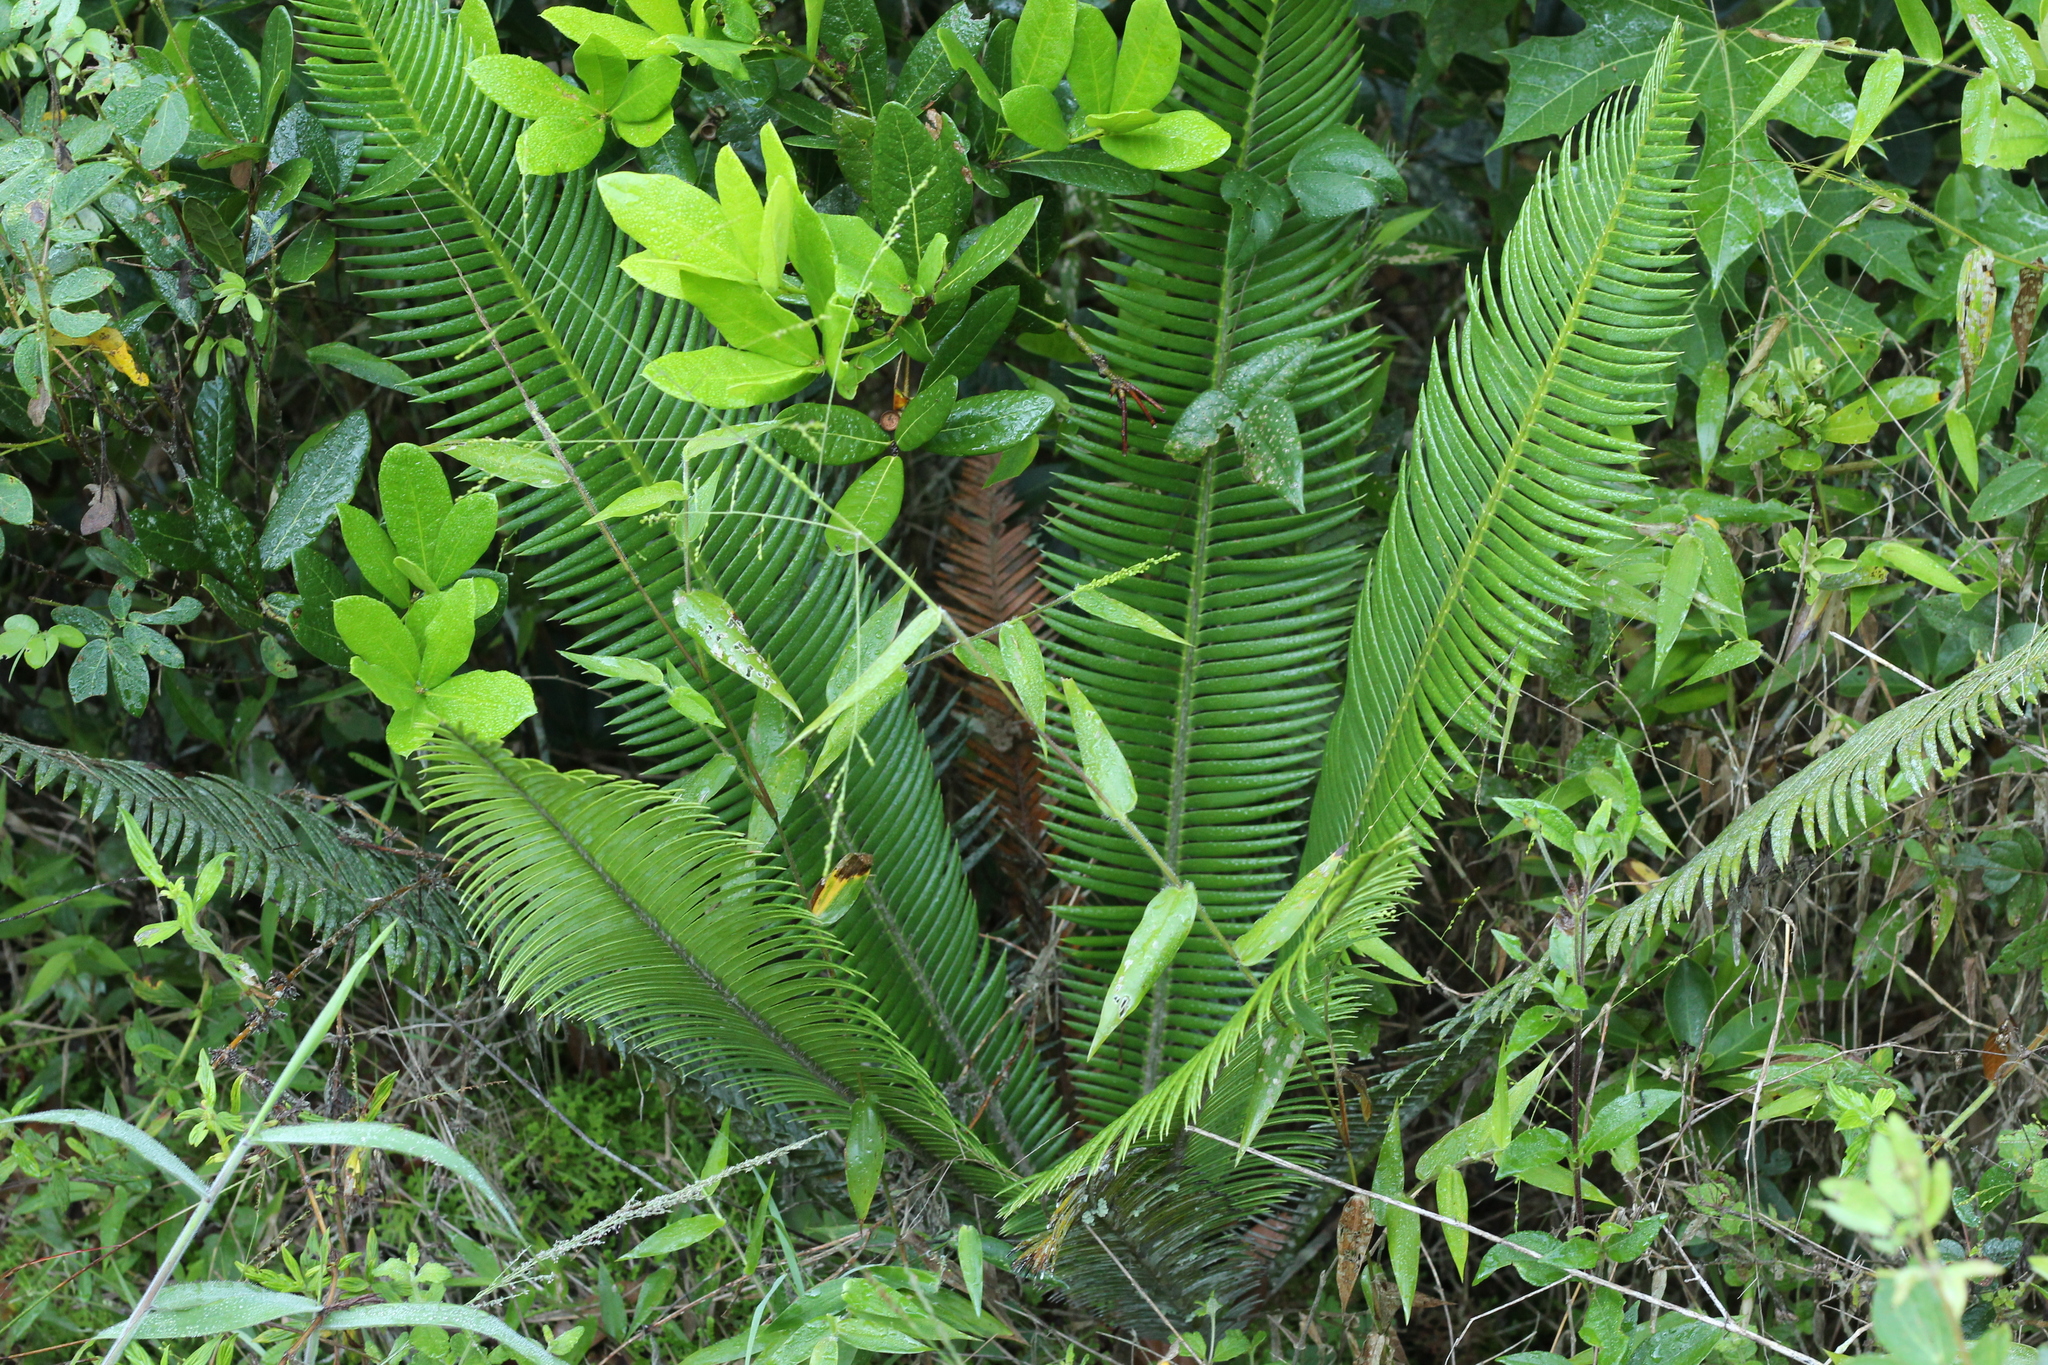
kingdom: Plantae
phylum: Tracheophyta
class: Cycadopsida
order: Cycadales
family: Zamiaceae
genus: Dioon
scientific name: Dioon edule
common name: Edible-seed cycas
